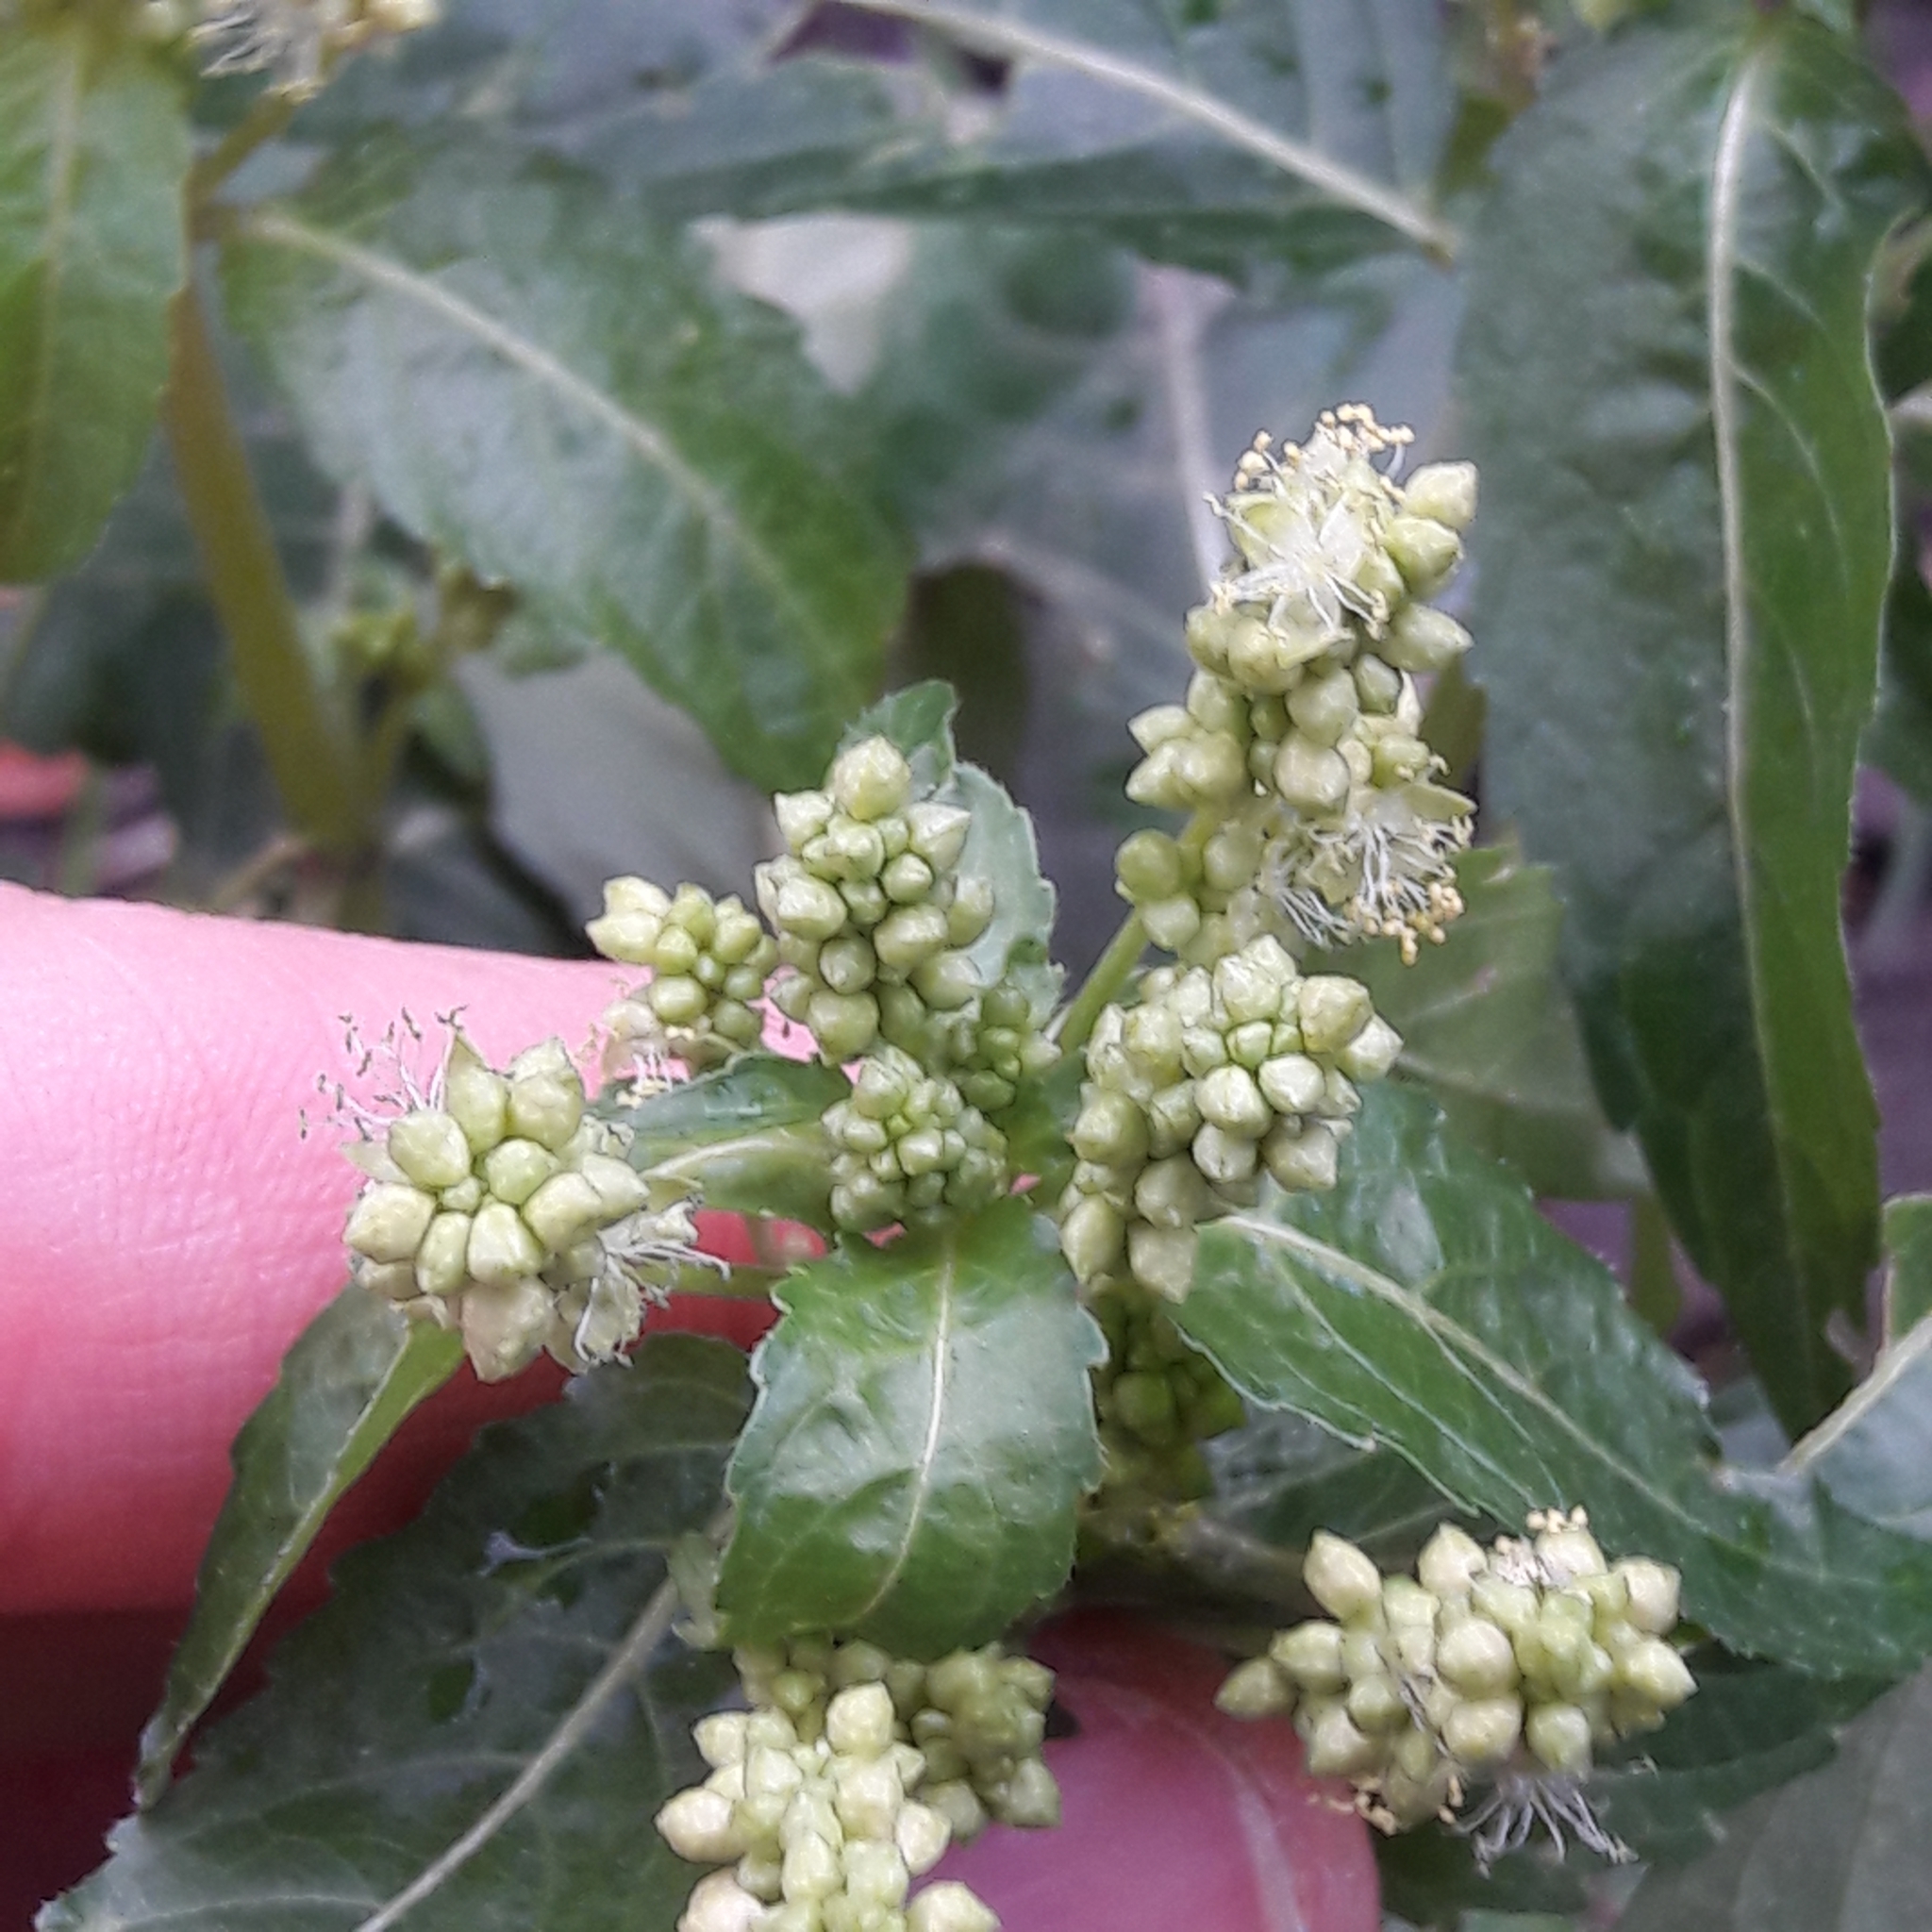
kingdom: Plantae
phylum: Tracheophyta
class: Magnoliopsida
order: Malpighiales
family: Euphorbiaceae
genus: Mercurialis
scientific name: Mercurialis annua
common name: Annual mercury
